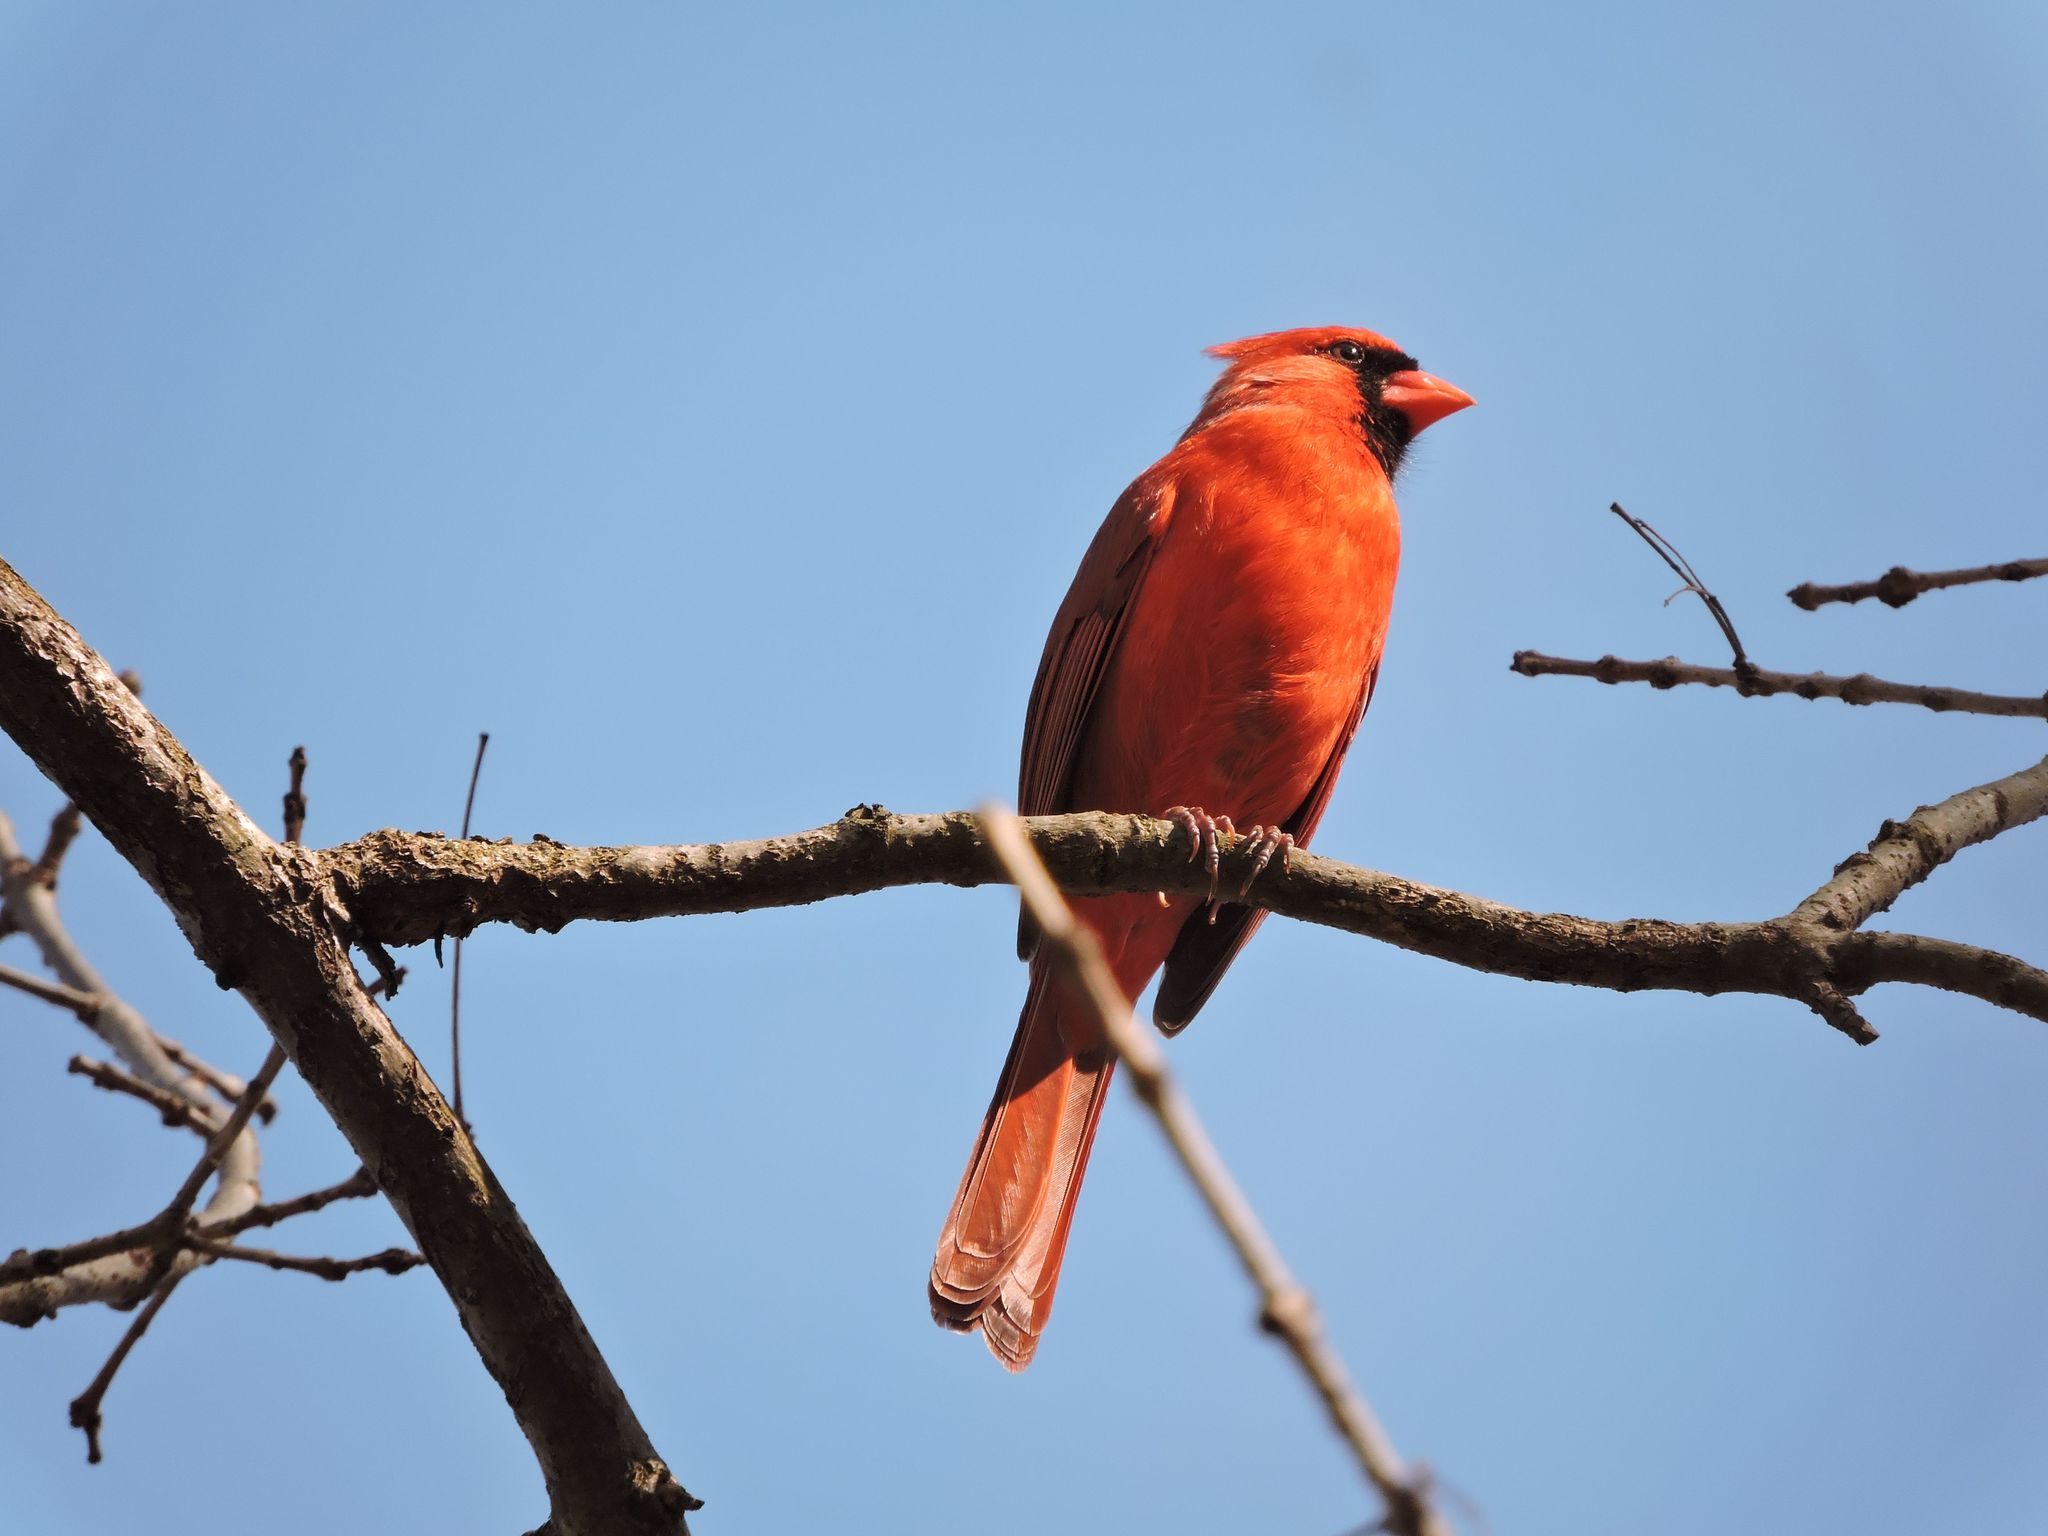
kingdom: Animalia
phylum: Chordata
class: Aves
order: Passeriformes
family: Cardinalidae
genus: Cardinalis
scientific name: Cardinalis cardinalis
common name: Northern cardinal
